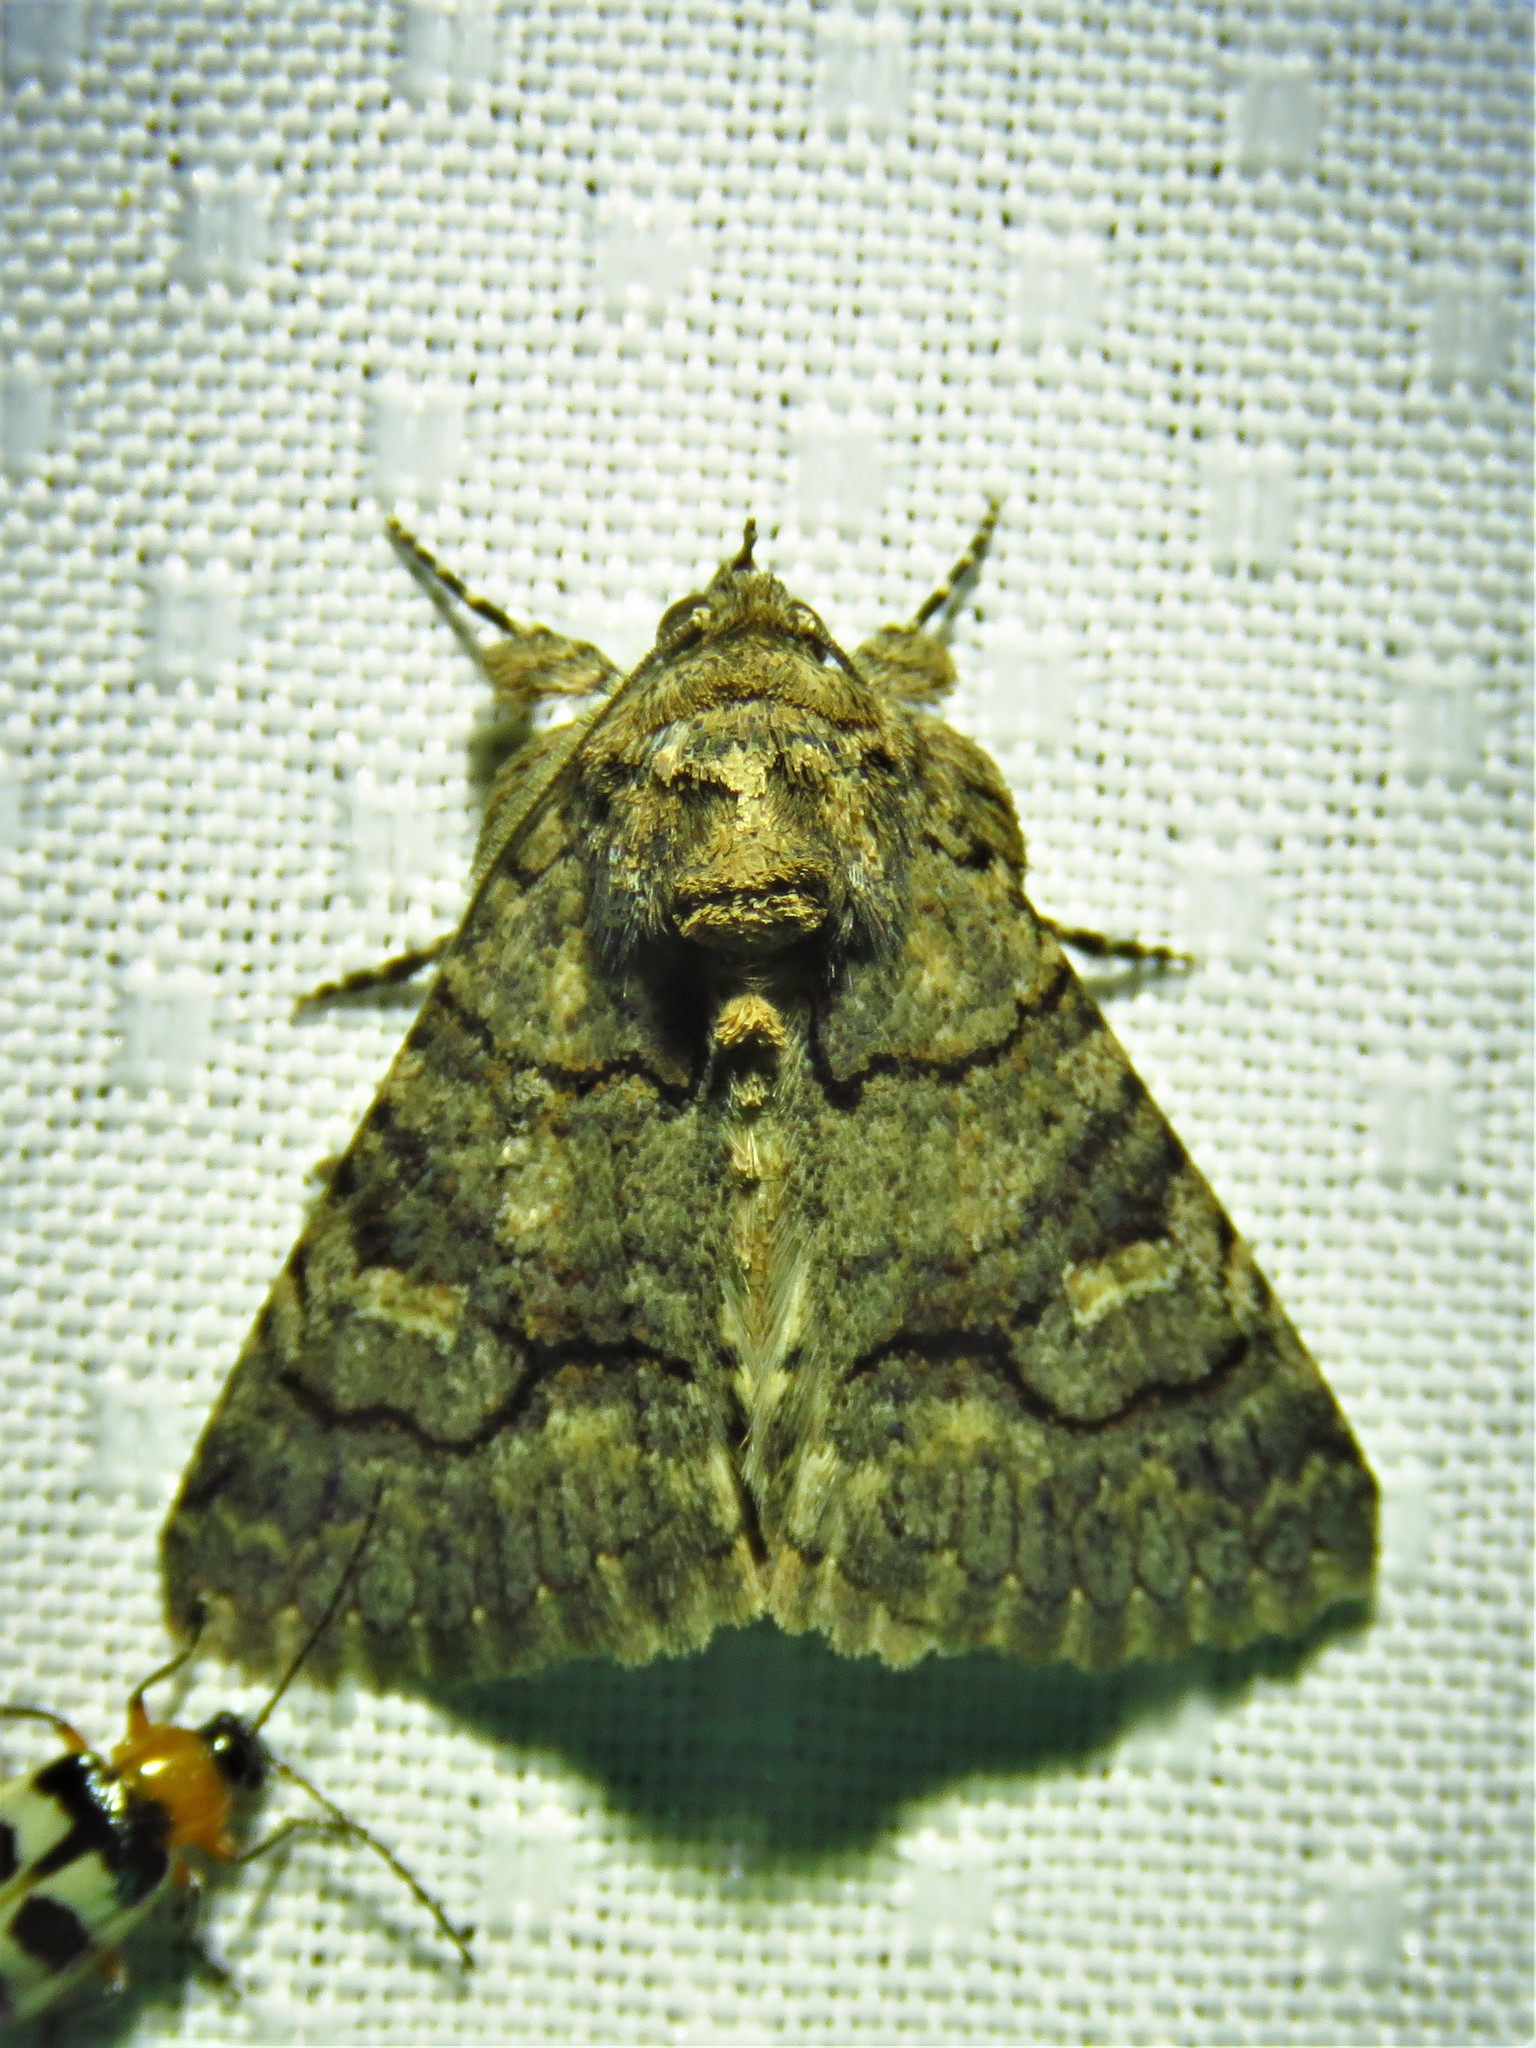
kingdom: Animalia
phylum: Arthropoda
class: Insecta
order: Lepidoptera
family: Erebidae
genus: Elousa
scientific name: Elousa mima
